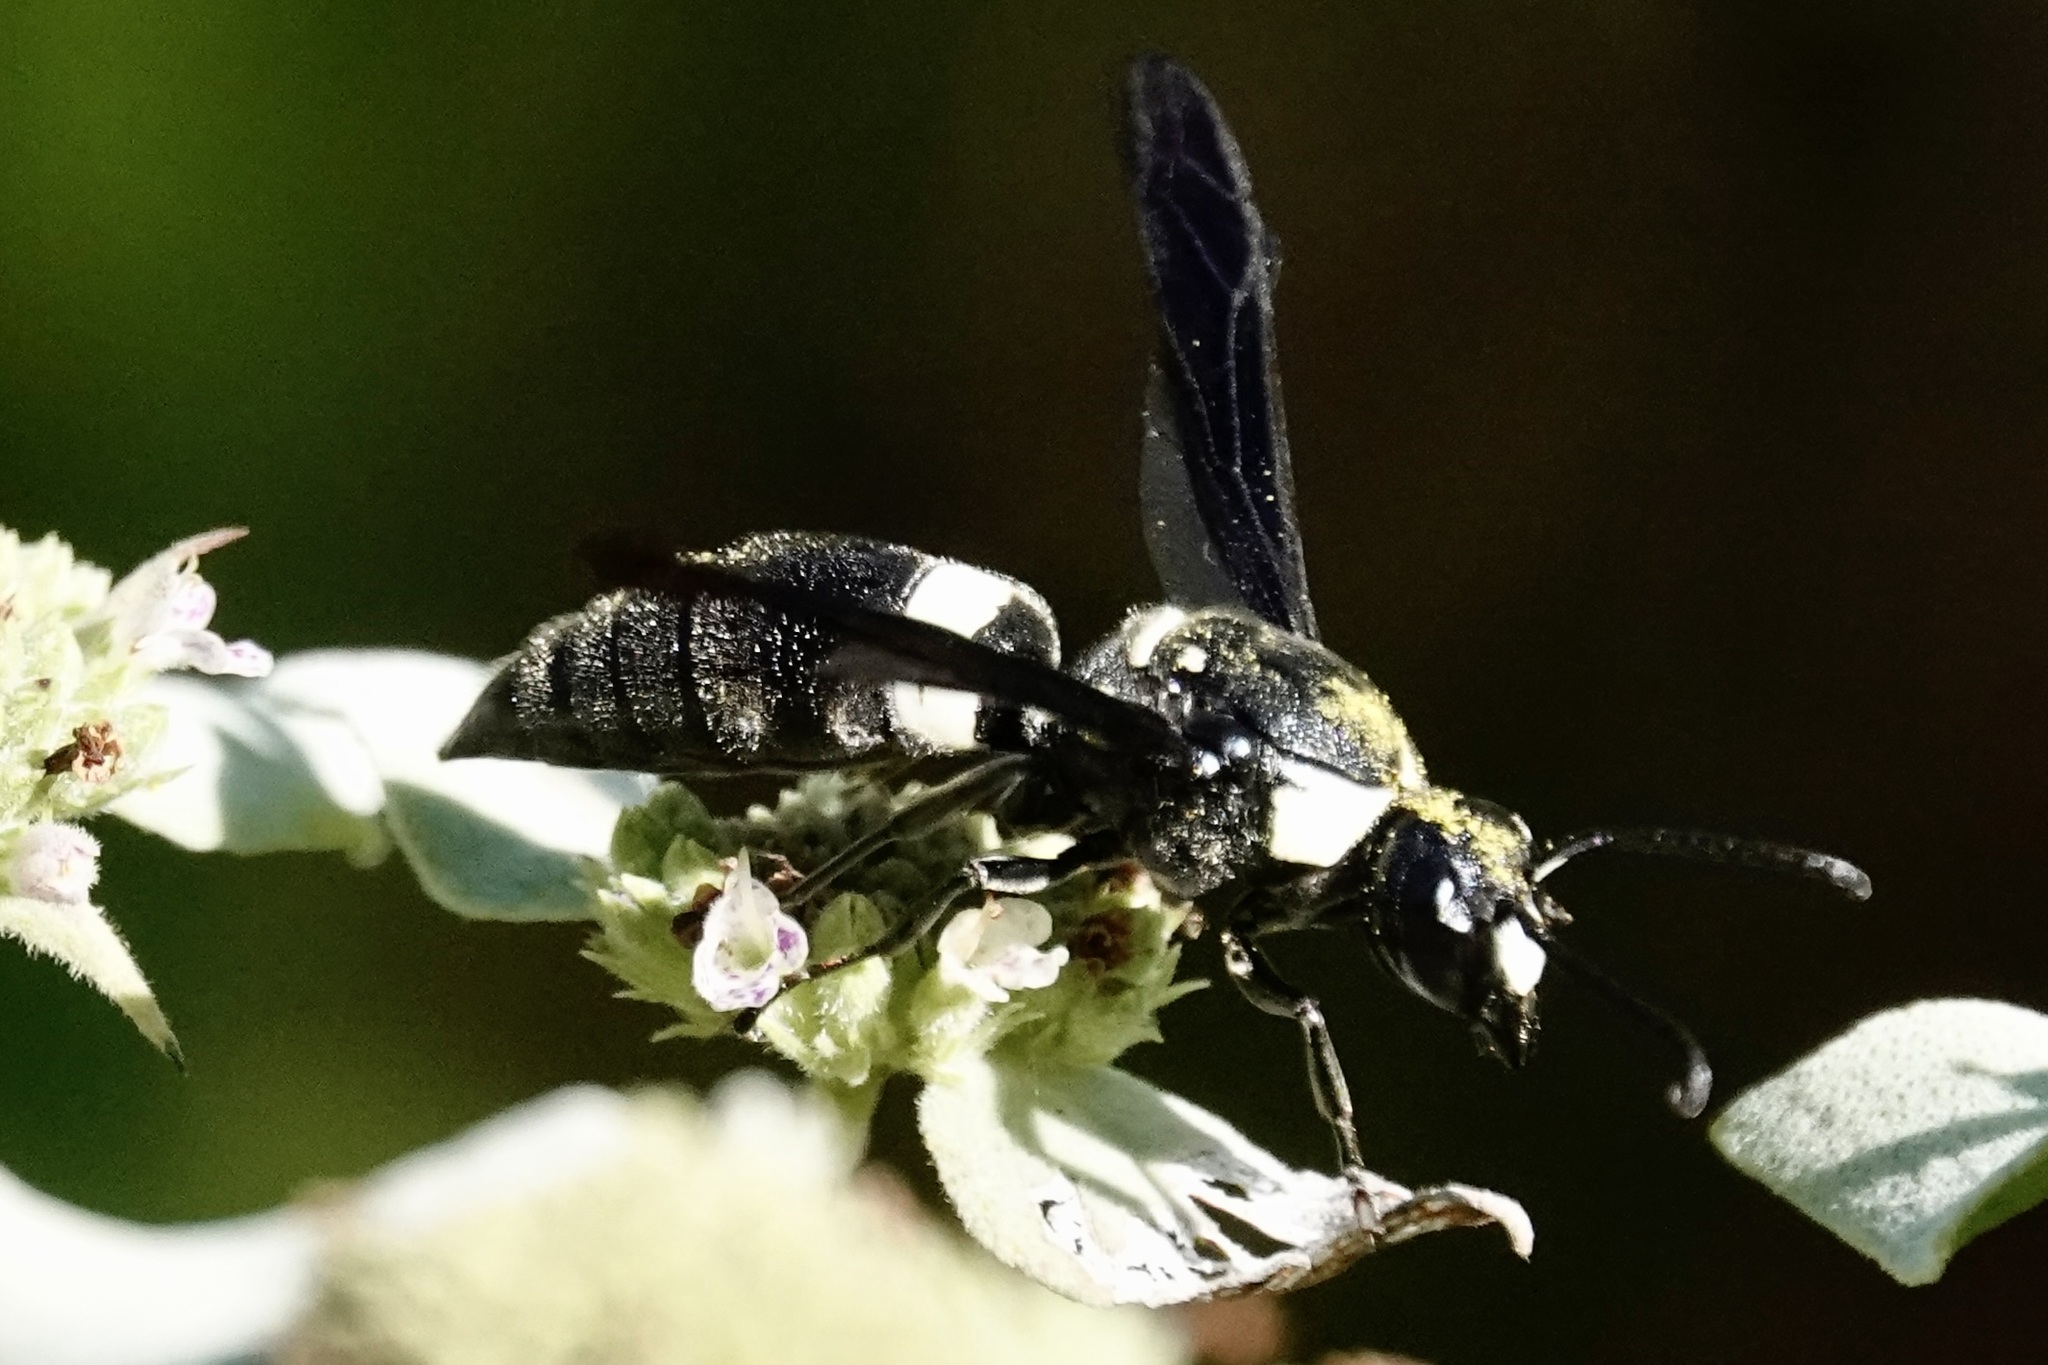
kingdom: Animalia
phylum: Arthropoda
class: Insecta
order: Hymenoptera
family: Eumenidae
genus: Monobia
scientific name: Monobia quadridens
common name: Four-toothed mason wasp
